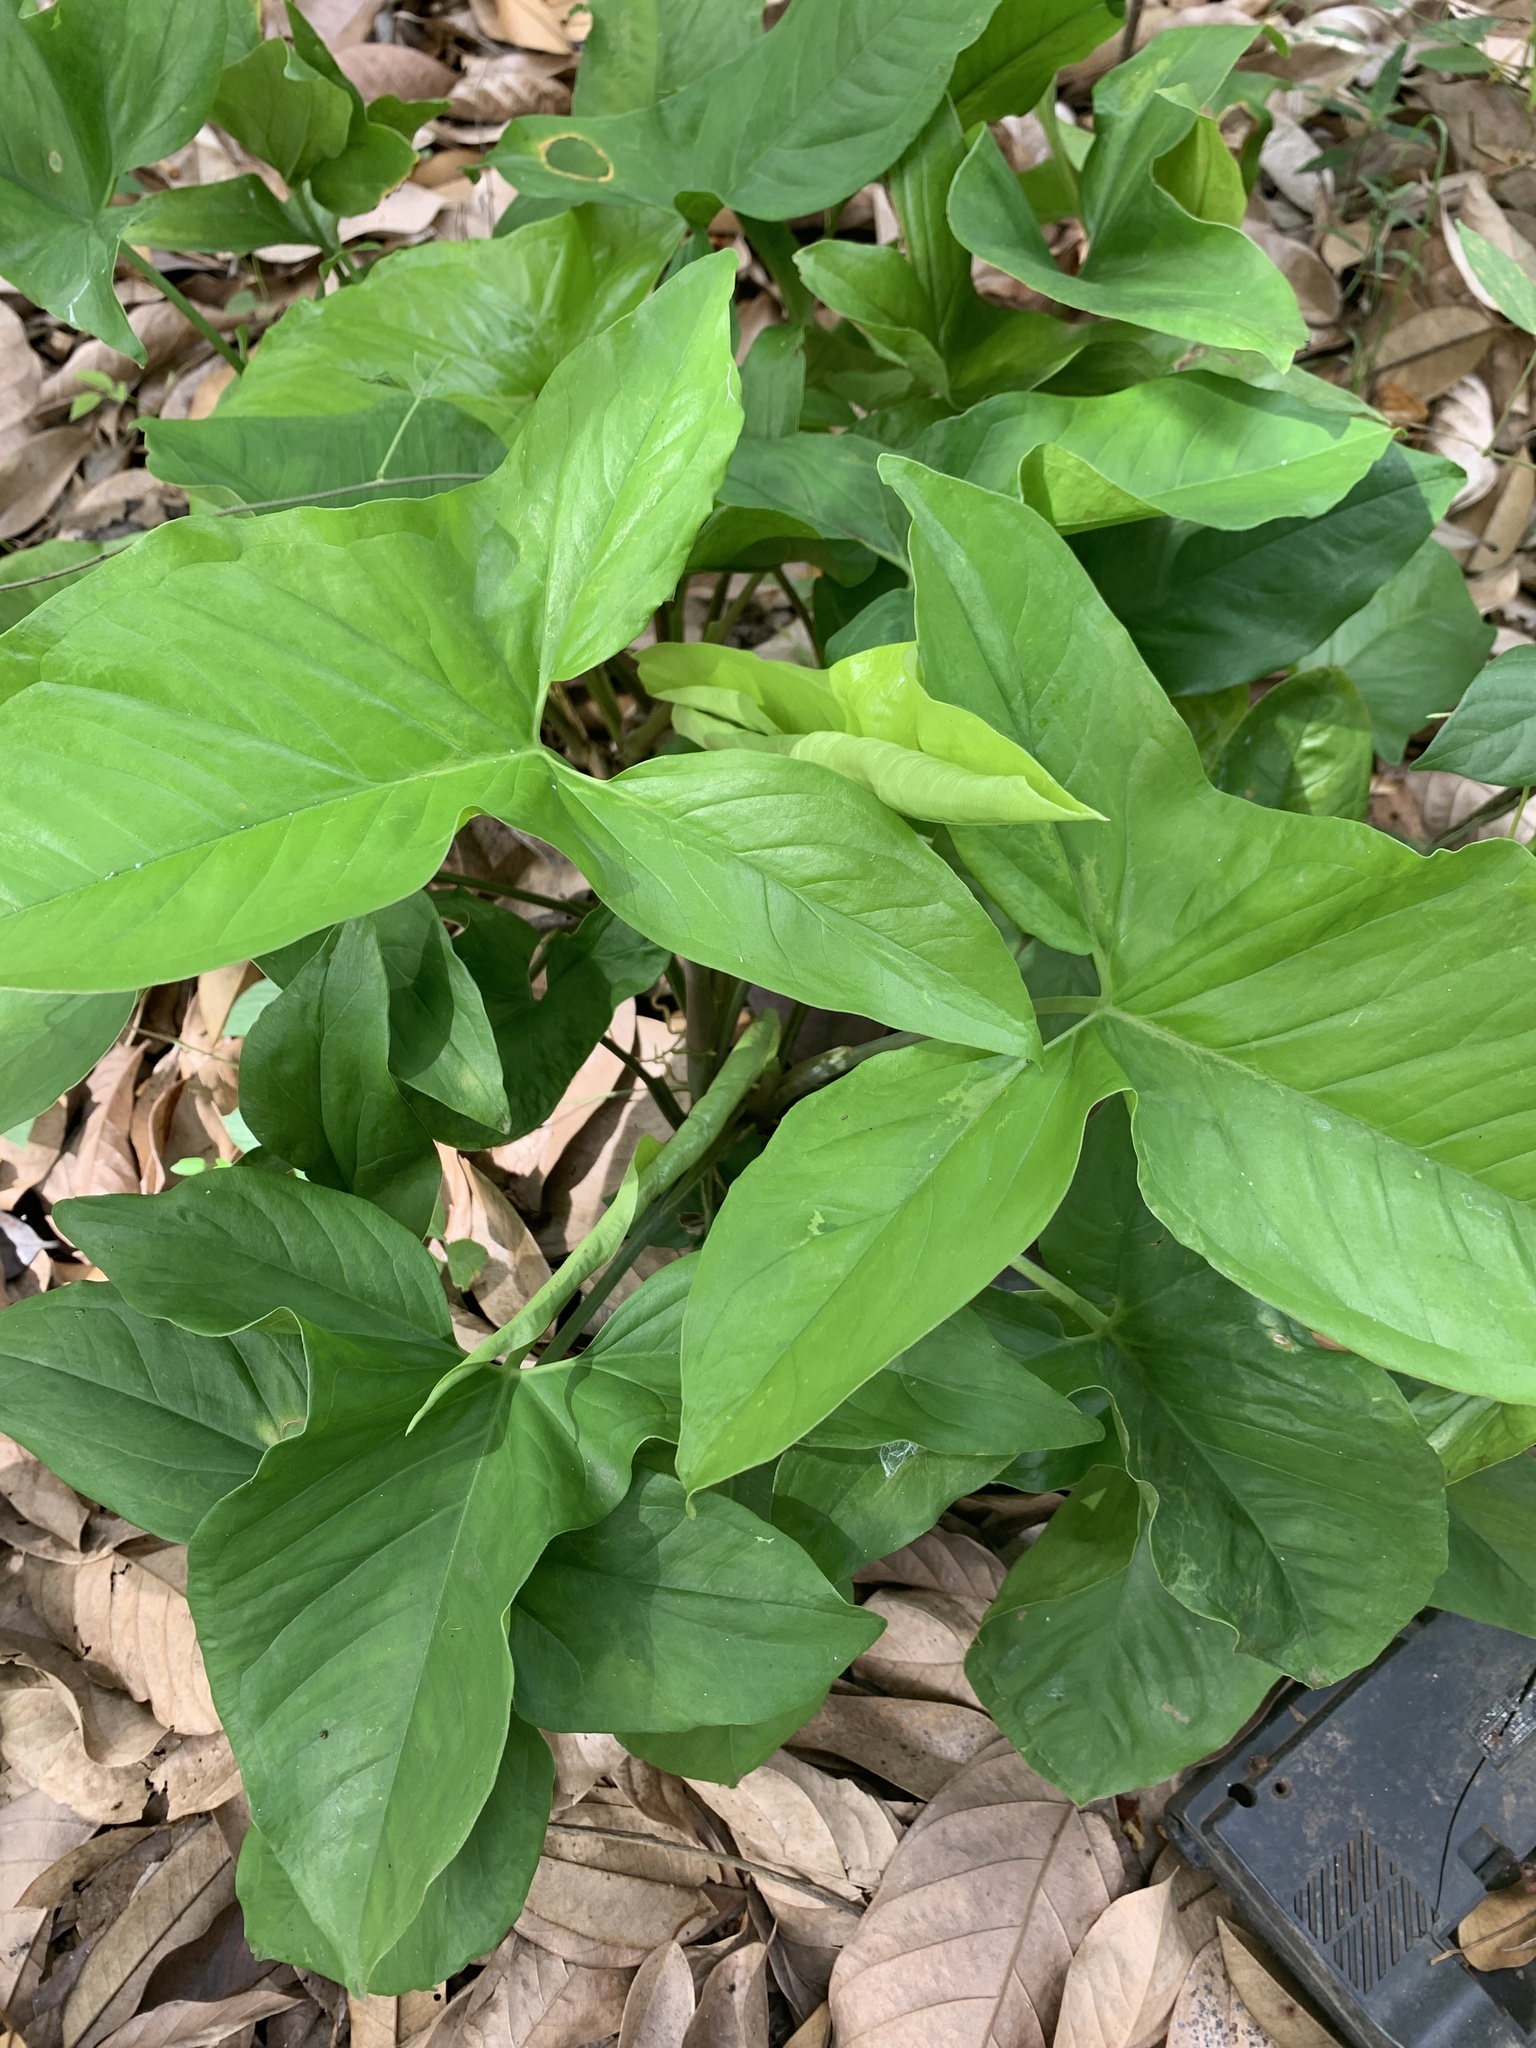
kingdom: Plantae
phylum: Tracheophyta
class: Liliopsida
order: Alismatales
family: Araceae
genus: Syngonium
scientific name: Syngonium podophyllum
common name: American evergreen
